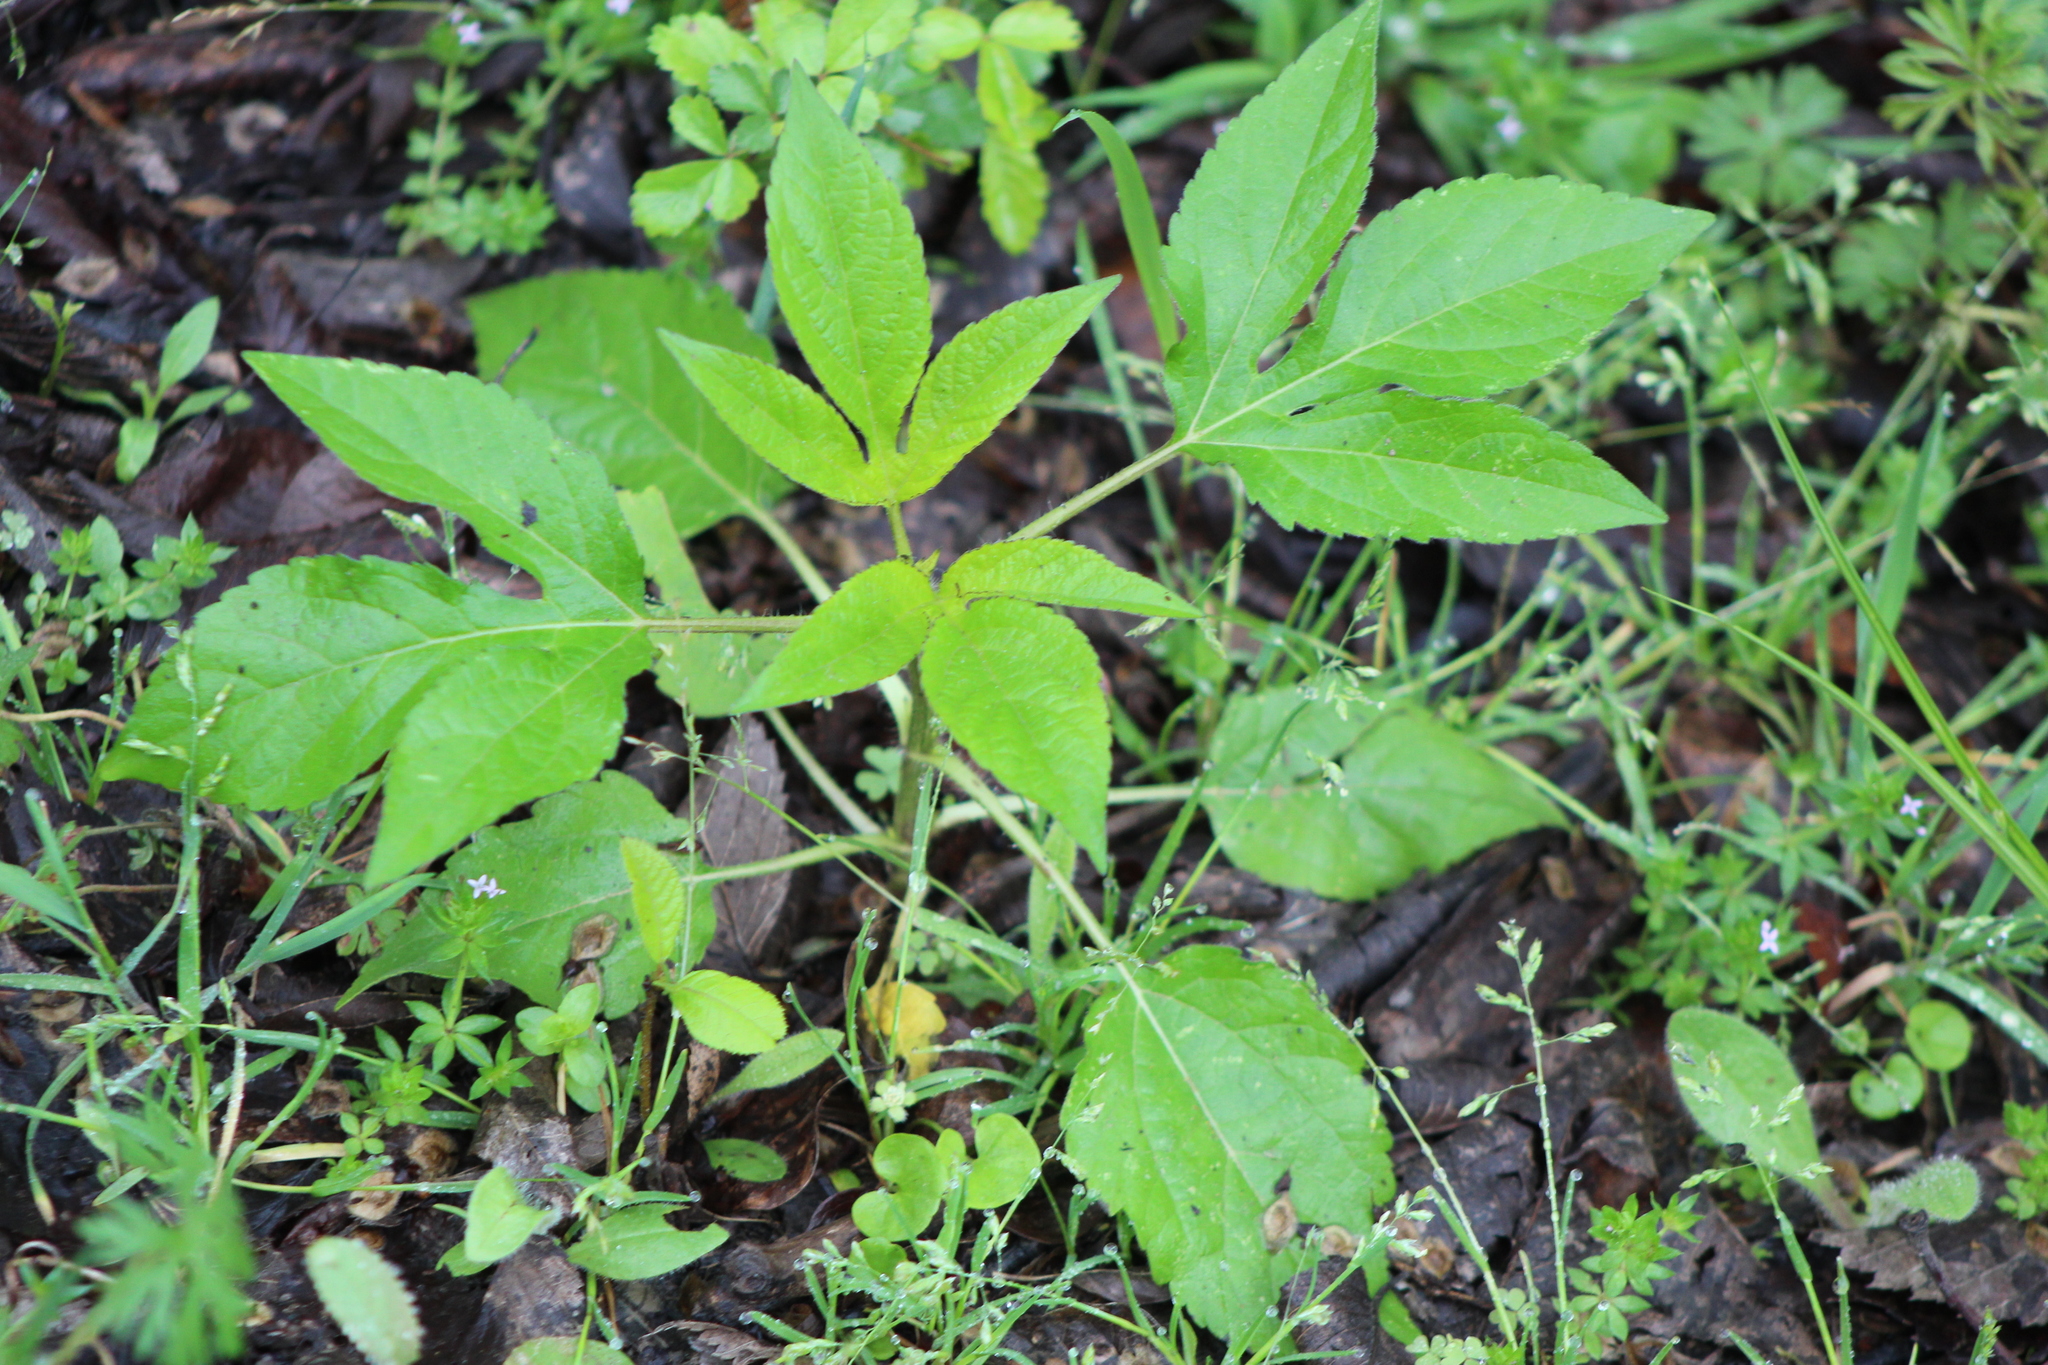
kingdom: Plantae
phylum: Tracheophyta
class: Magnoliopsida
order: Asterales
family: Asteraceae
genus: Ambrosia
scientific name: Ambrosia trifida
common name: Giant ragweed
